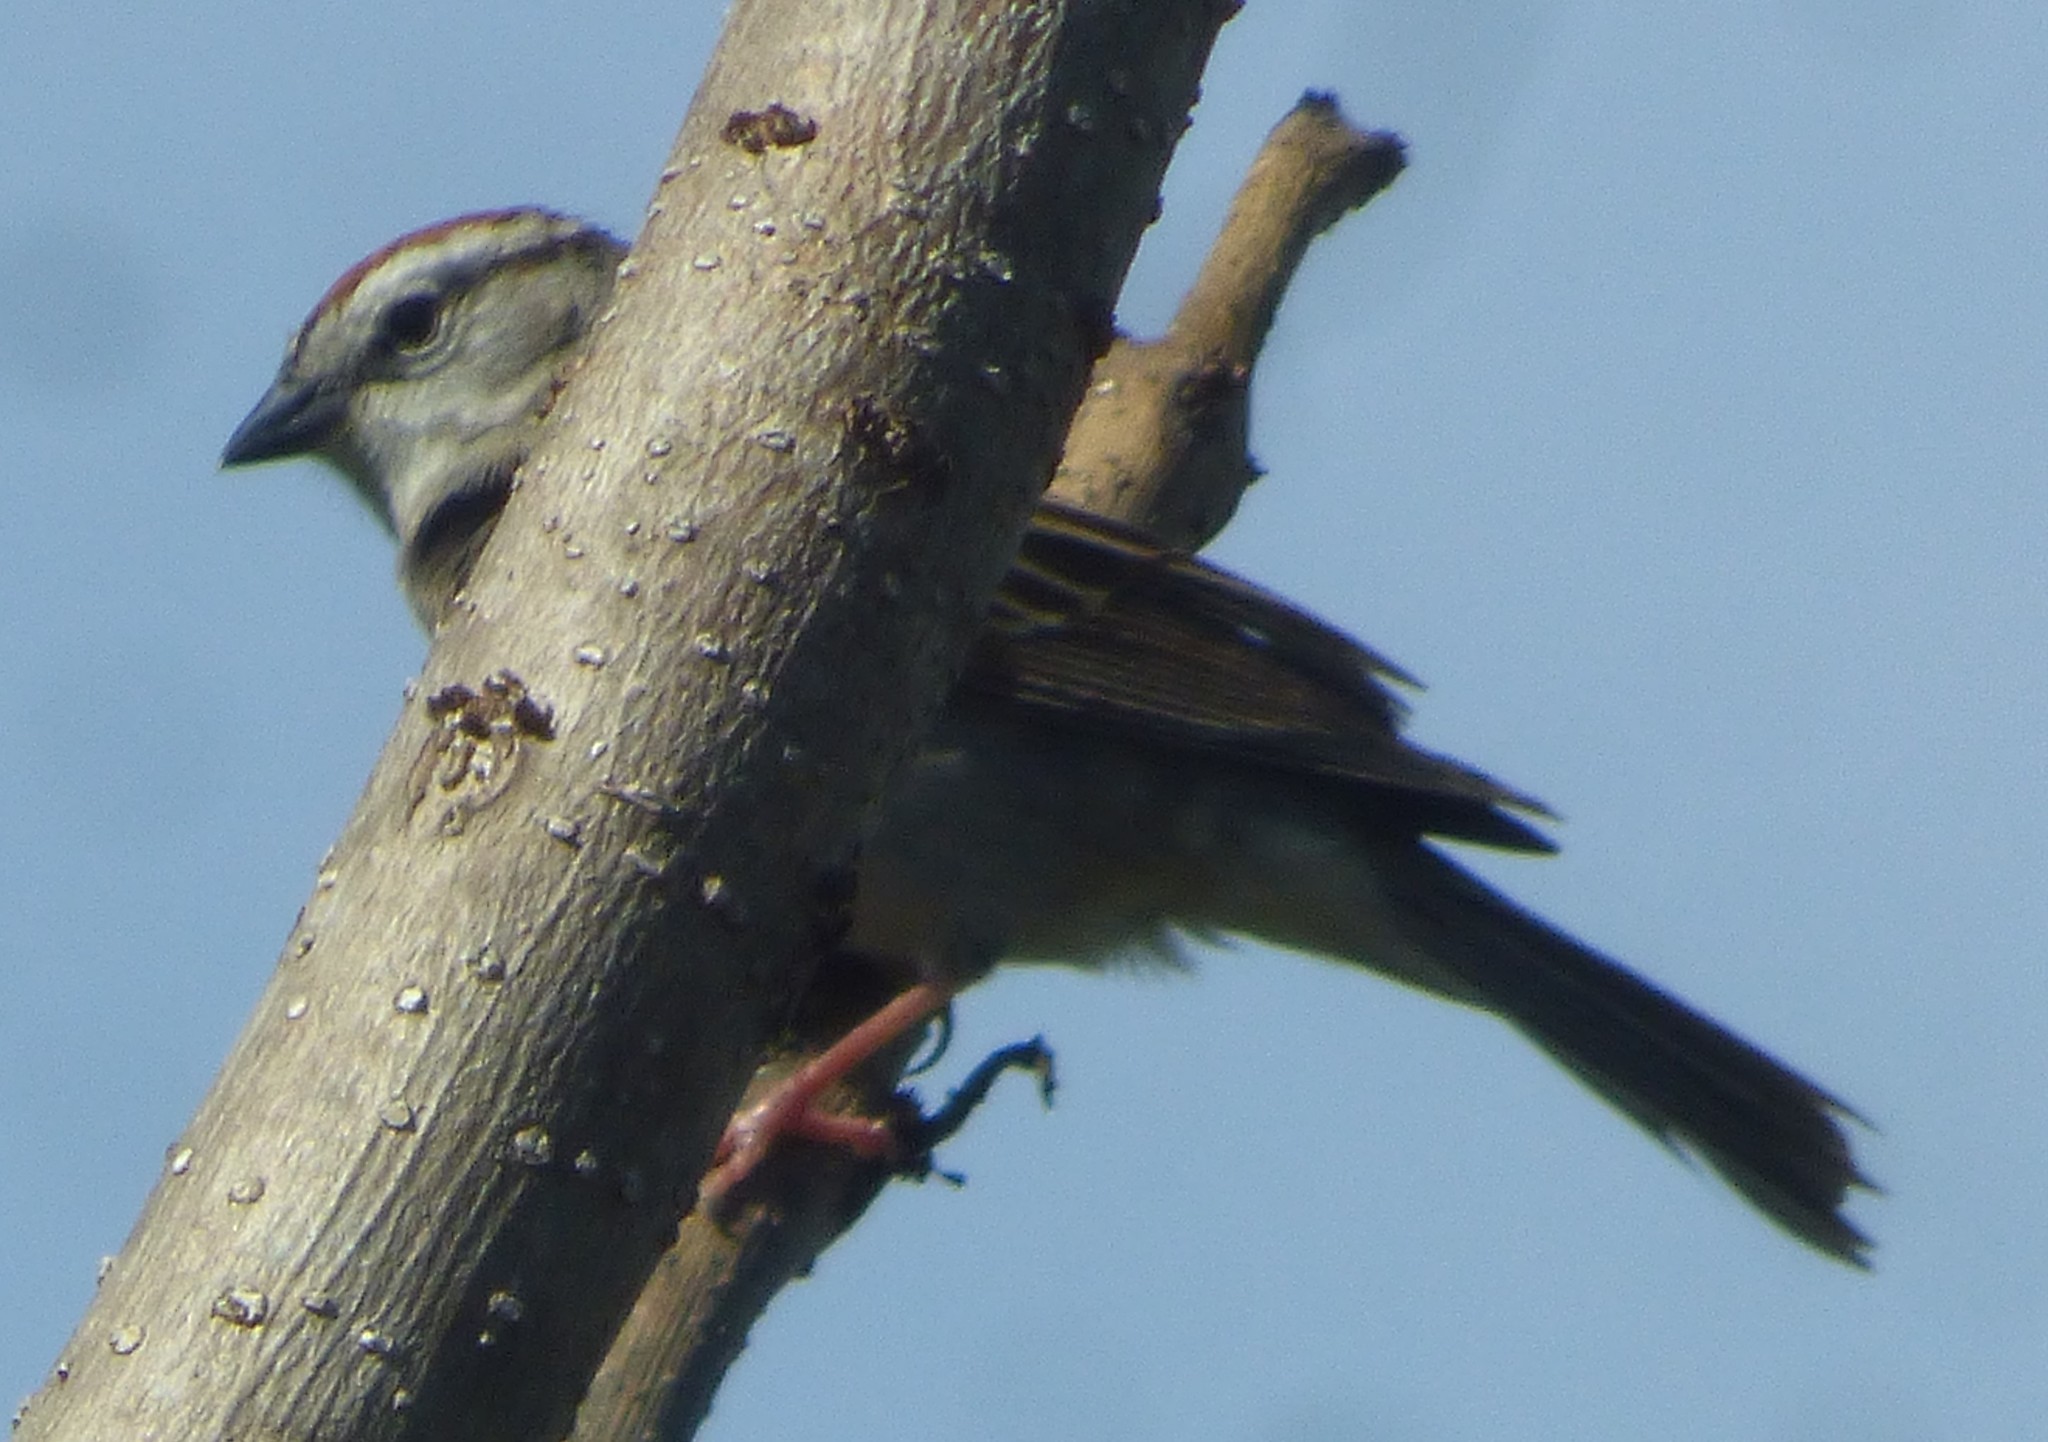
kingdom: Animalia
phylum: Chordata
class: Aves
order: Passeriformes
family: Passerellidae
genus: Spizella
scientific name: Spizella passerina
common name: Chipping sparrow
